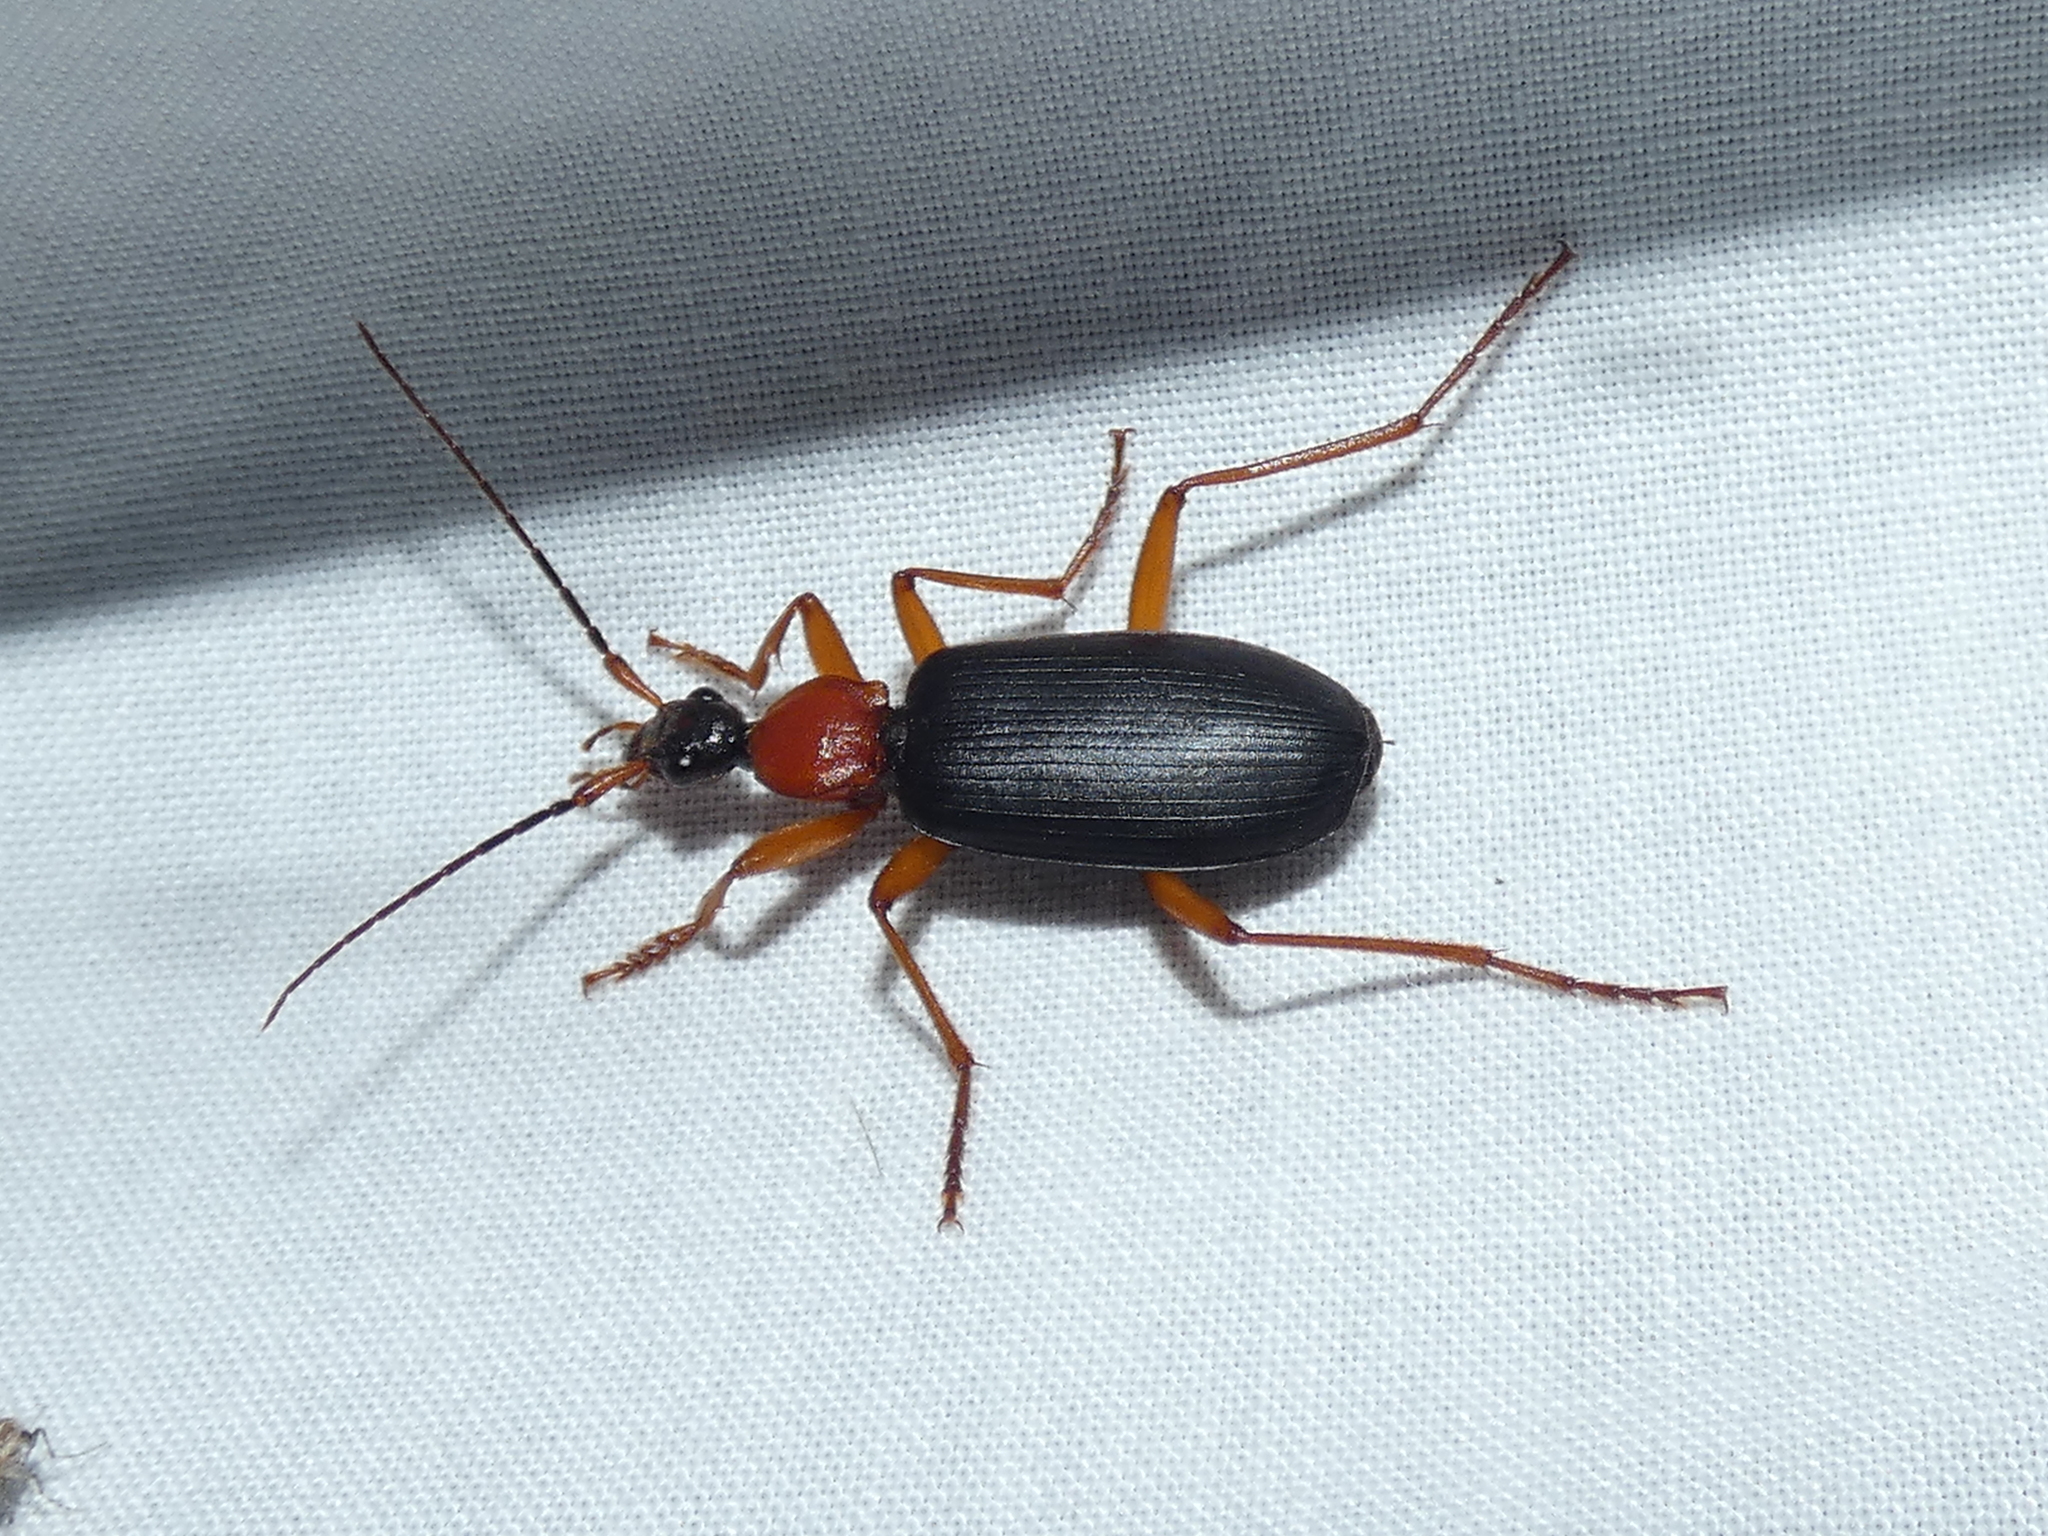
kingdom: Animalia
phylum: Arthropoda
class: Insecta
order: Coleoptera
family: Carabidae
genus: Agonum
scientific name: Agonum decorum
